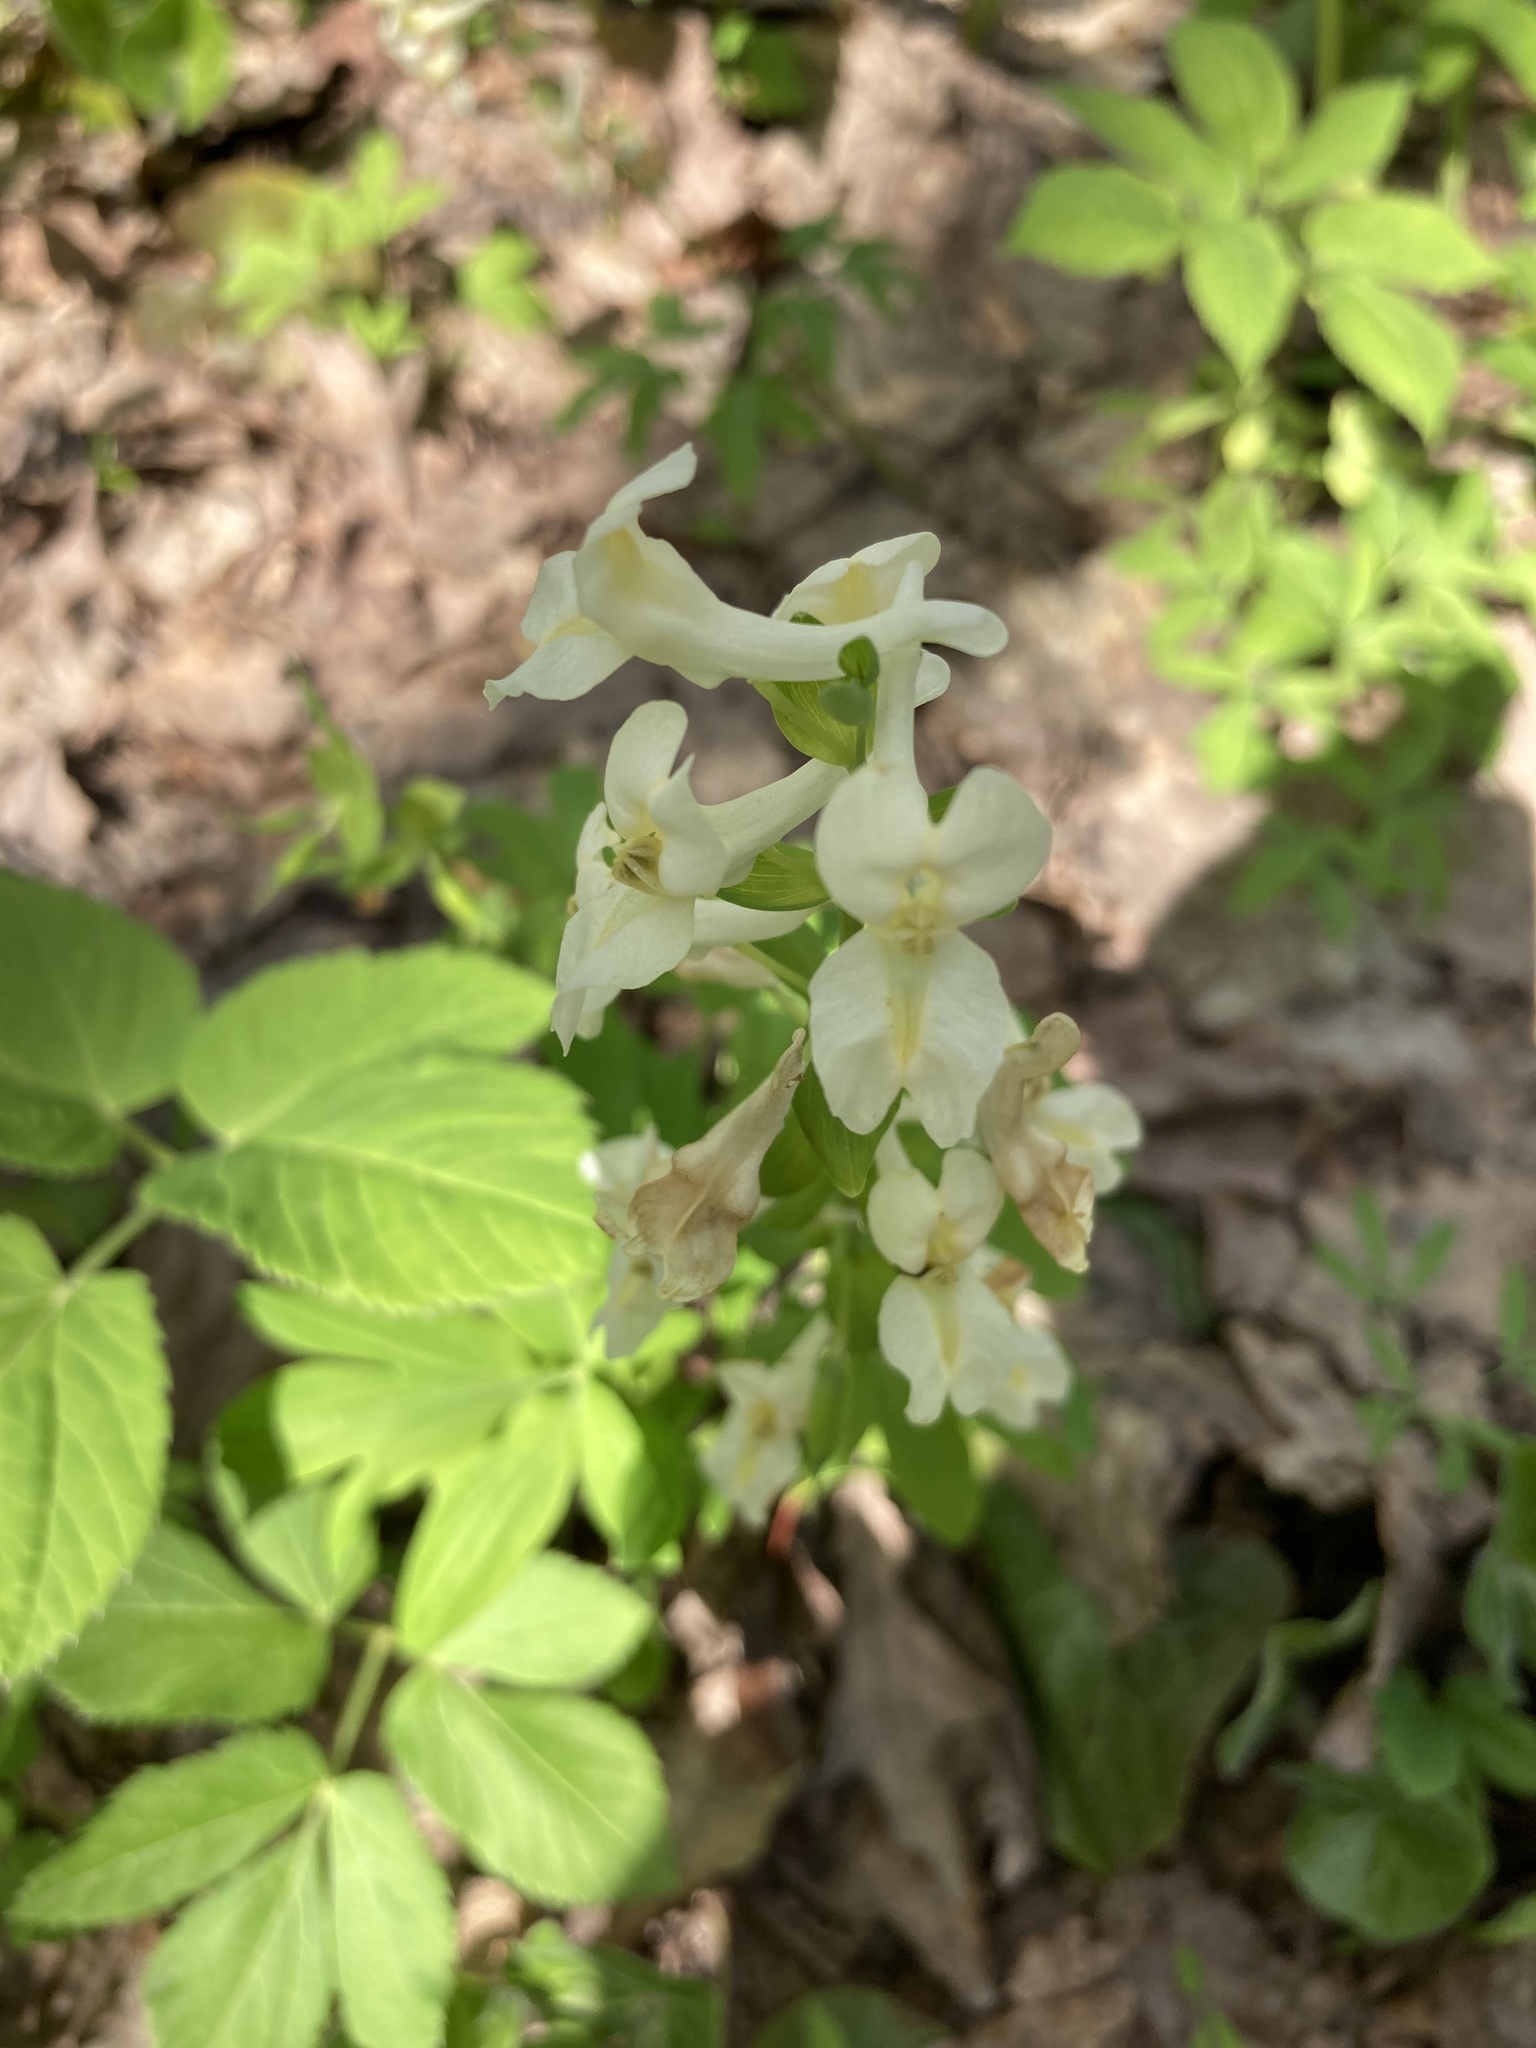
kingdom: Plantae
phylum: Tracheophyta
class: Magnoliopsida
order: Ranunculales
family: Papaveraceae
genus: Corydalis
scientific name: Corydalis cava
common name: Hollowroot
